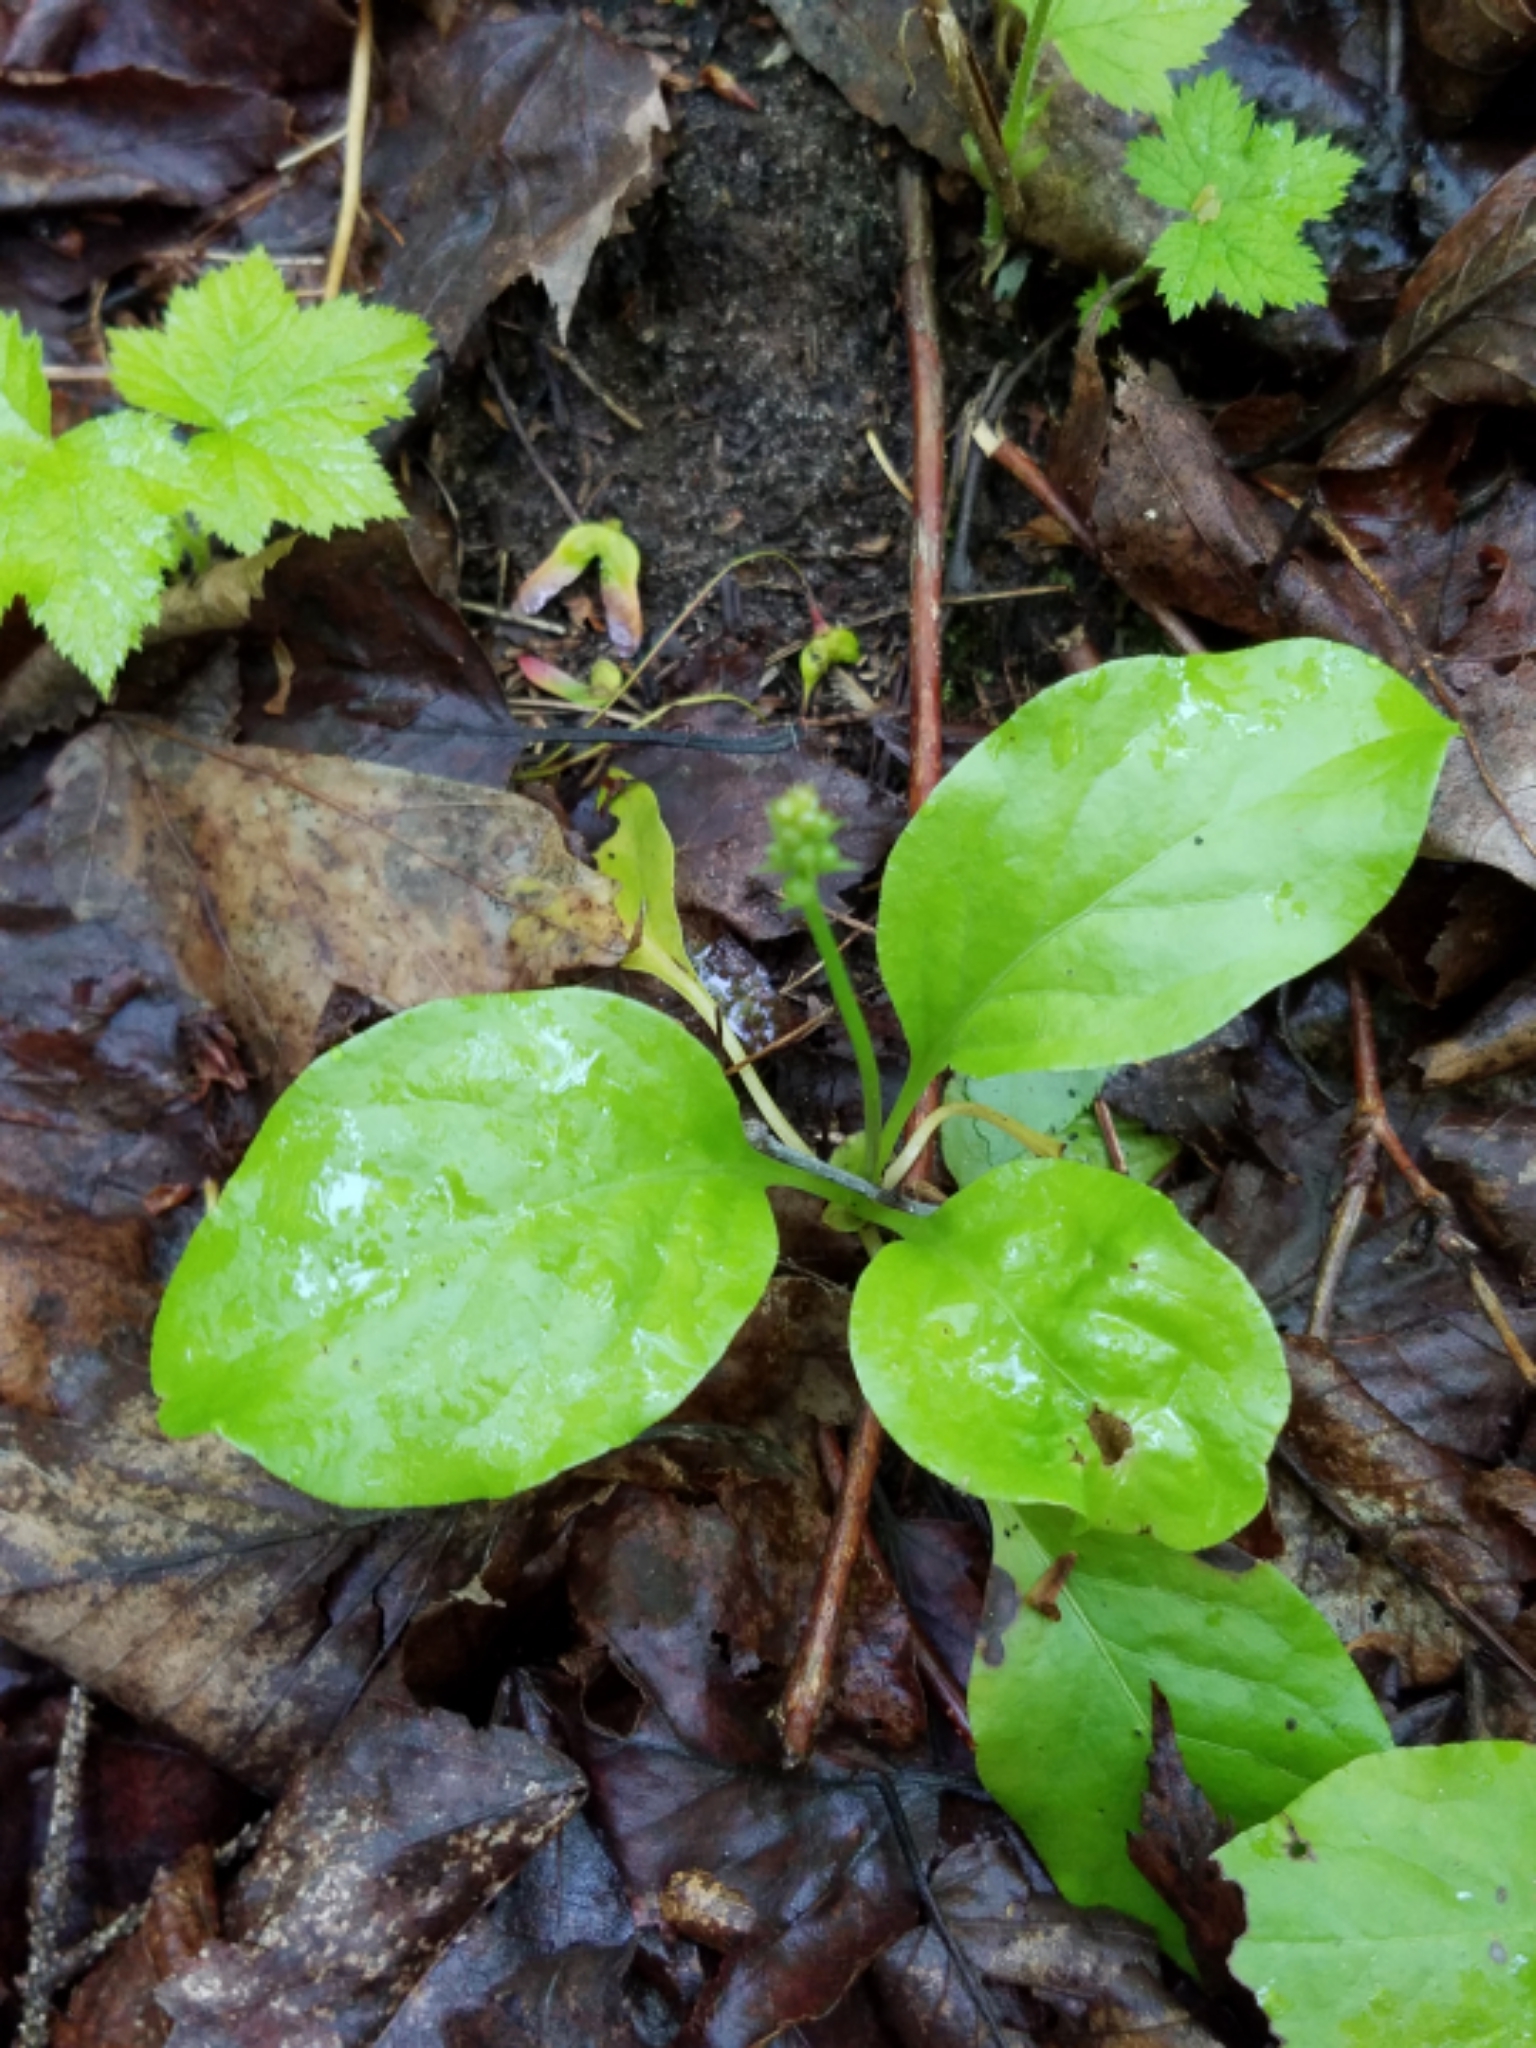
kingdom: Plantae
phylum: Tracheophyta
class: Magnoliopsida
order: Ericales
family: Ericaceae
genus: Pyrola
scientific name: Pyrola elliptica
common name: Shinleaf
